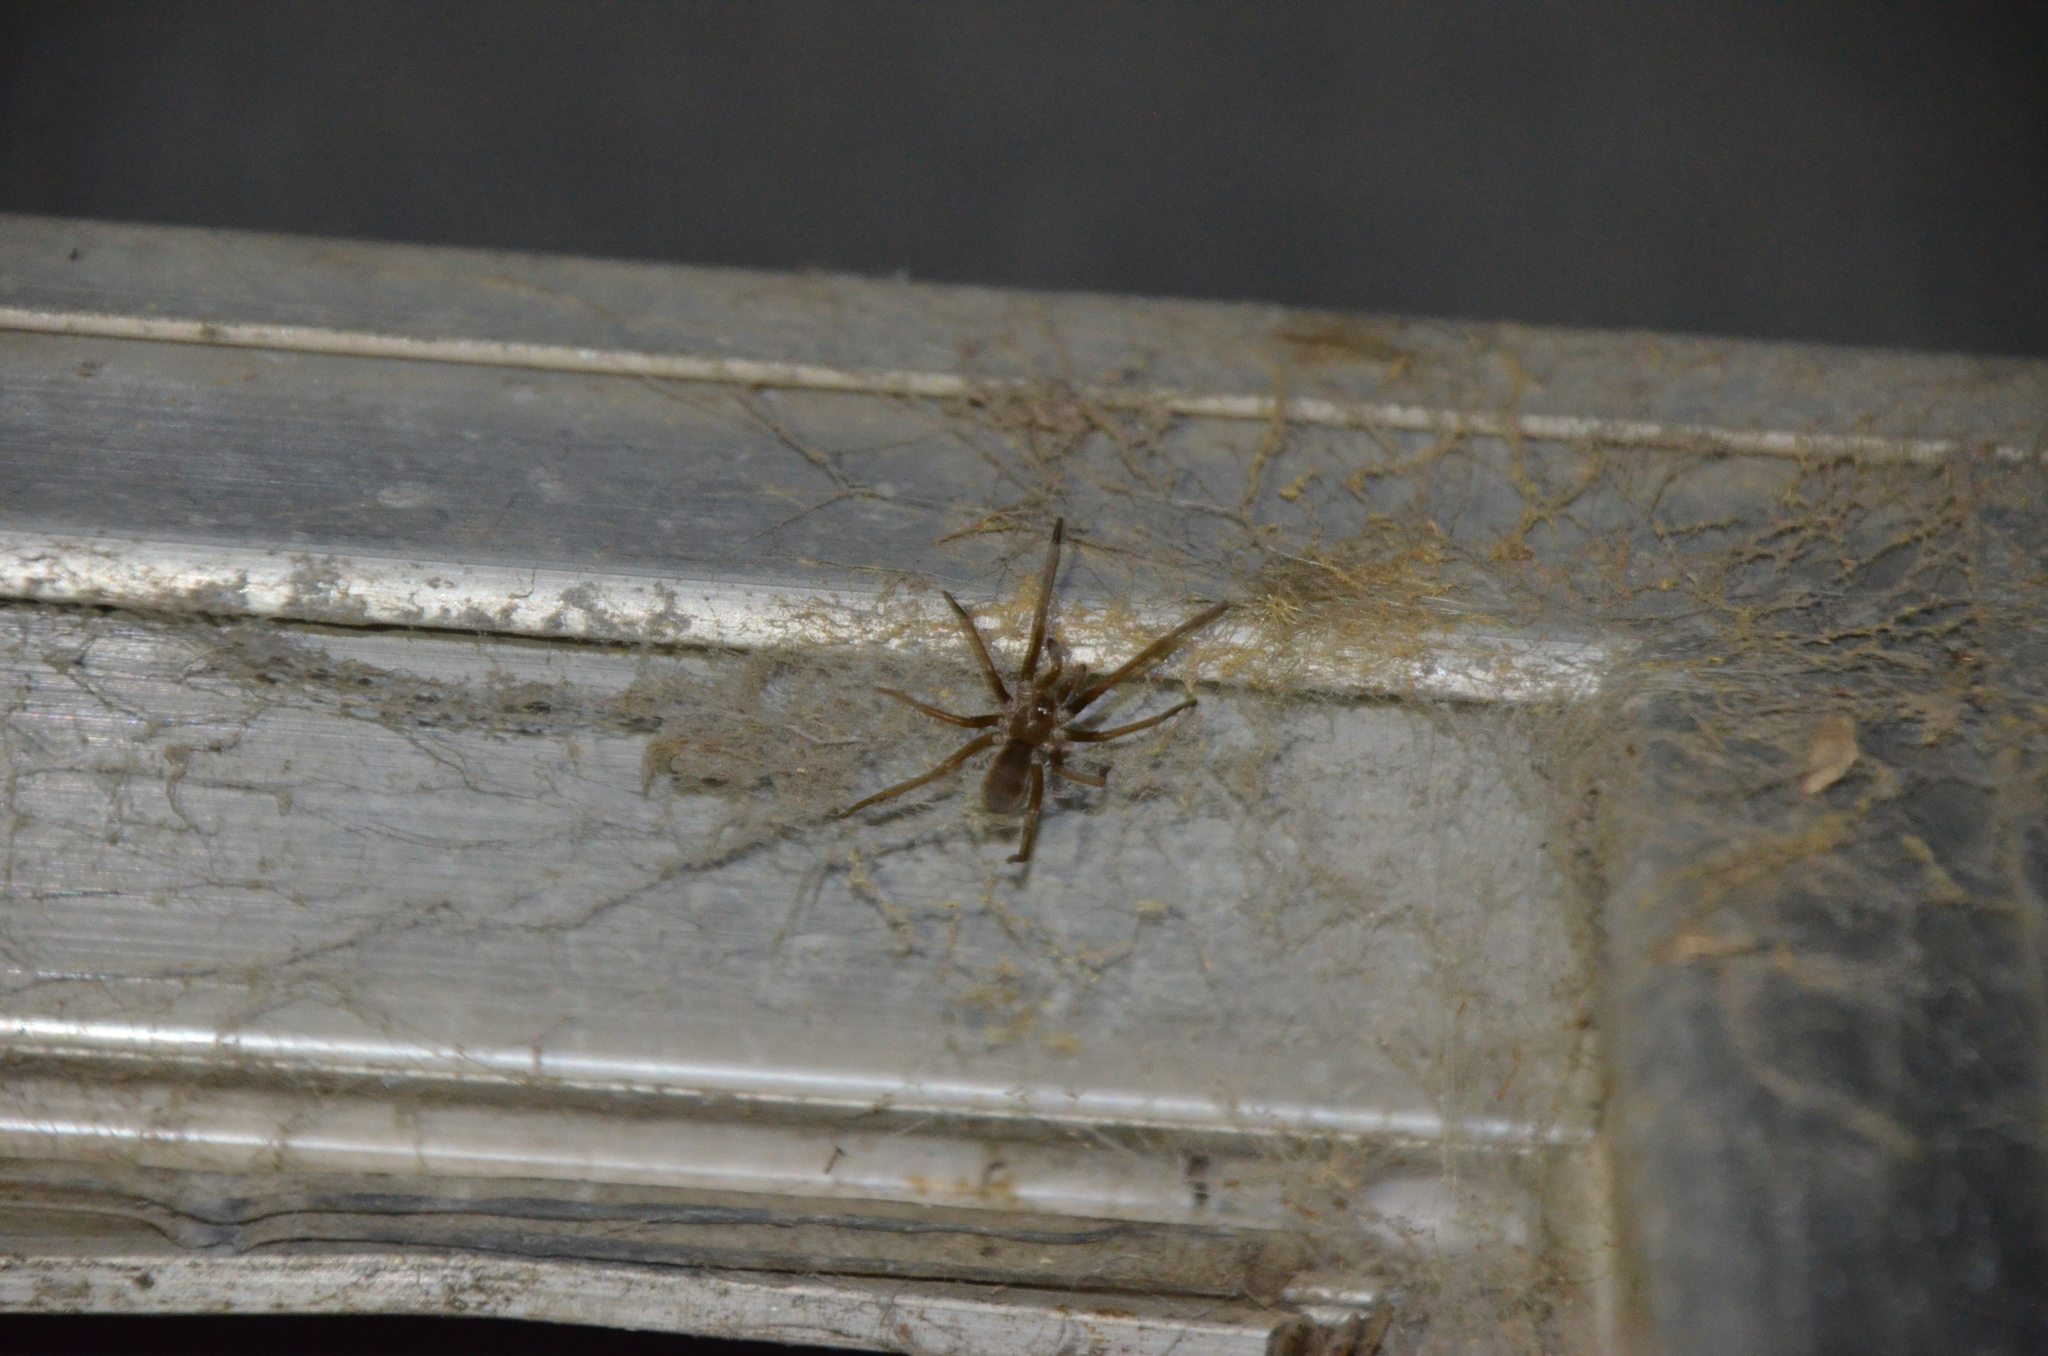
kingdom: Animalia
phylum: Arthropoda
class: Arachnida
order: Araneae
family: Filistatidae
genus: Kukulcania
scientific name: Kukulcania hibernalis
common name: Crevice weaver
